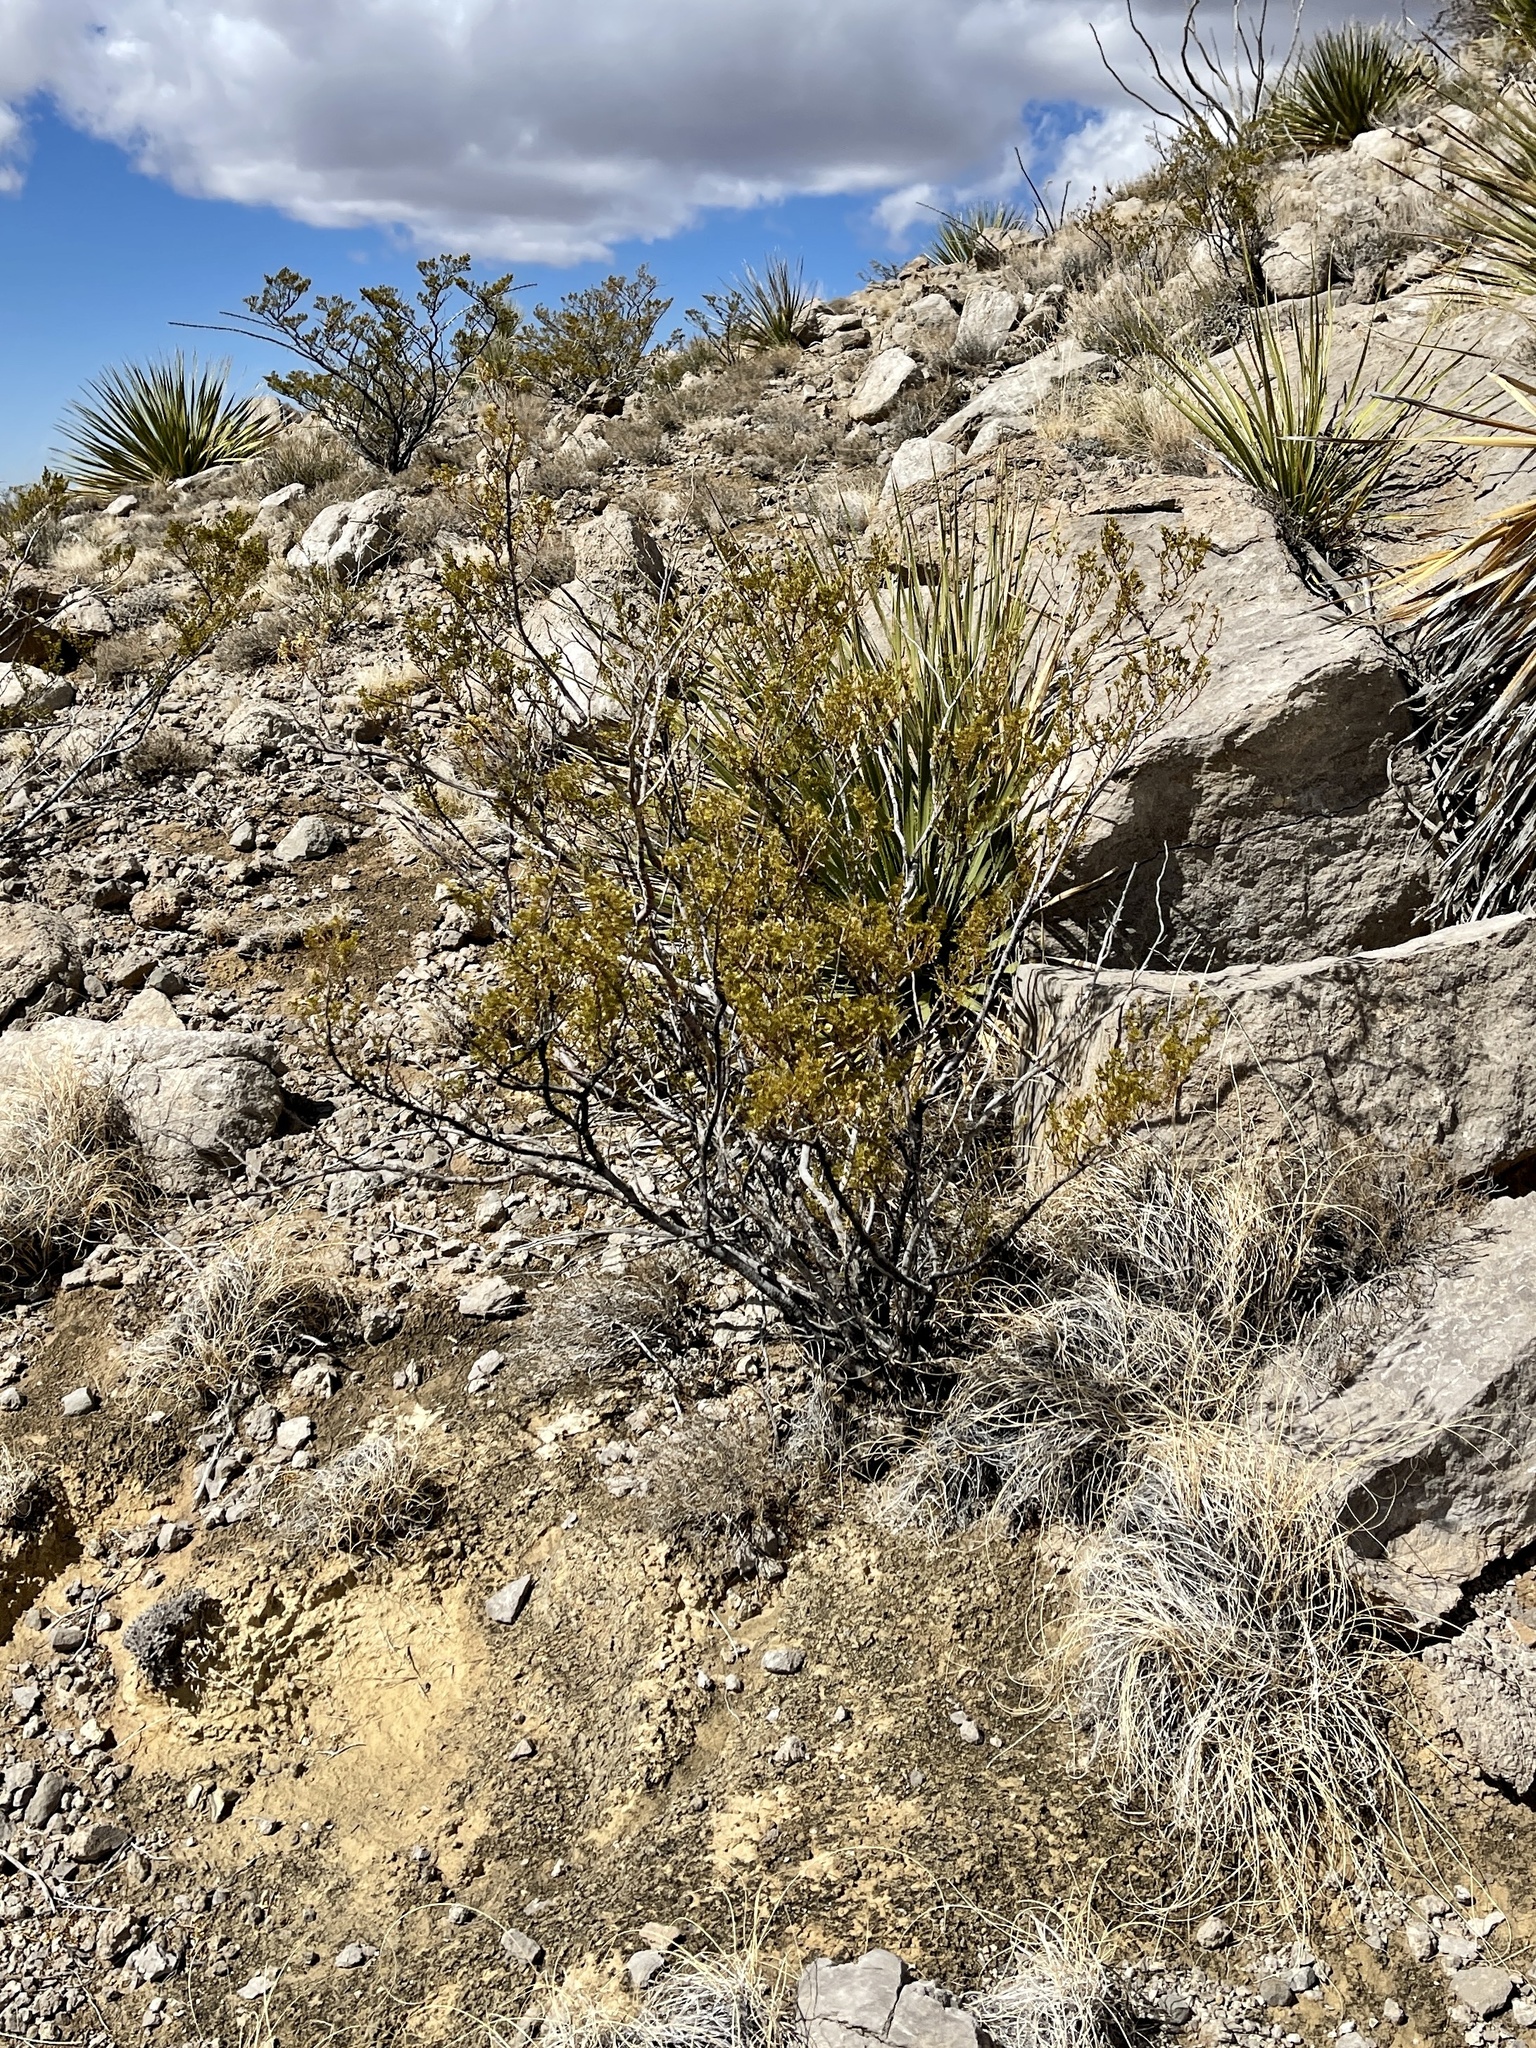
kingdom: Plantae
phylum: Tracheophyta
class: Magnoliopsida
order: Zygophyllales
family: Zygophyllaceae
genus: Larrea
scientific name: Larrea tridentata
